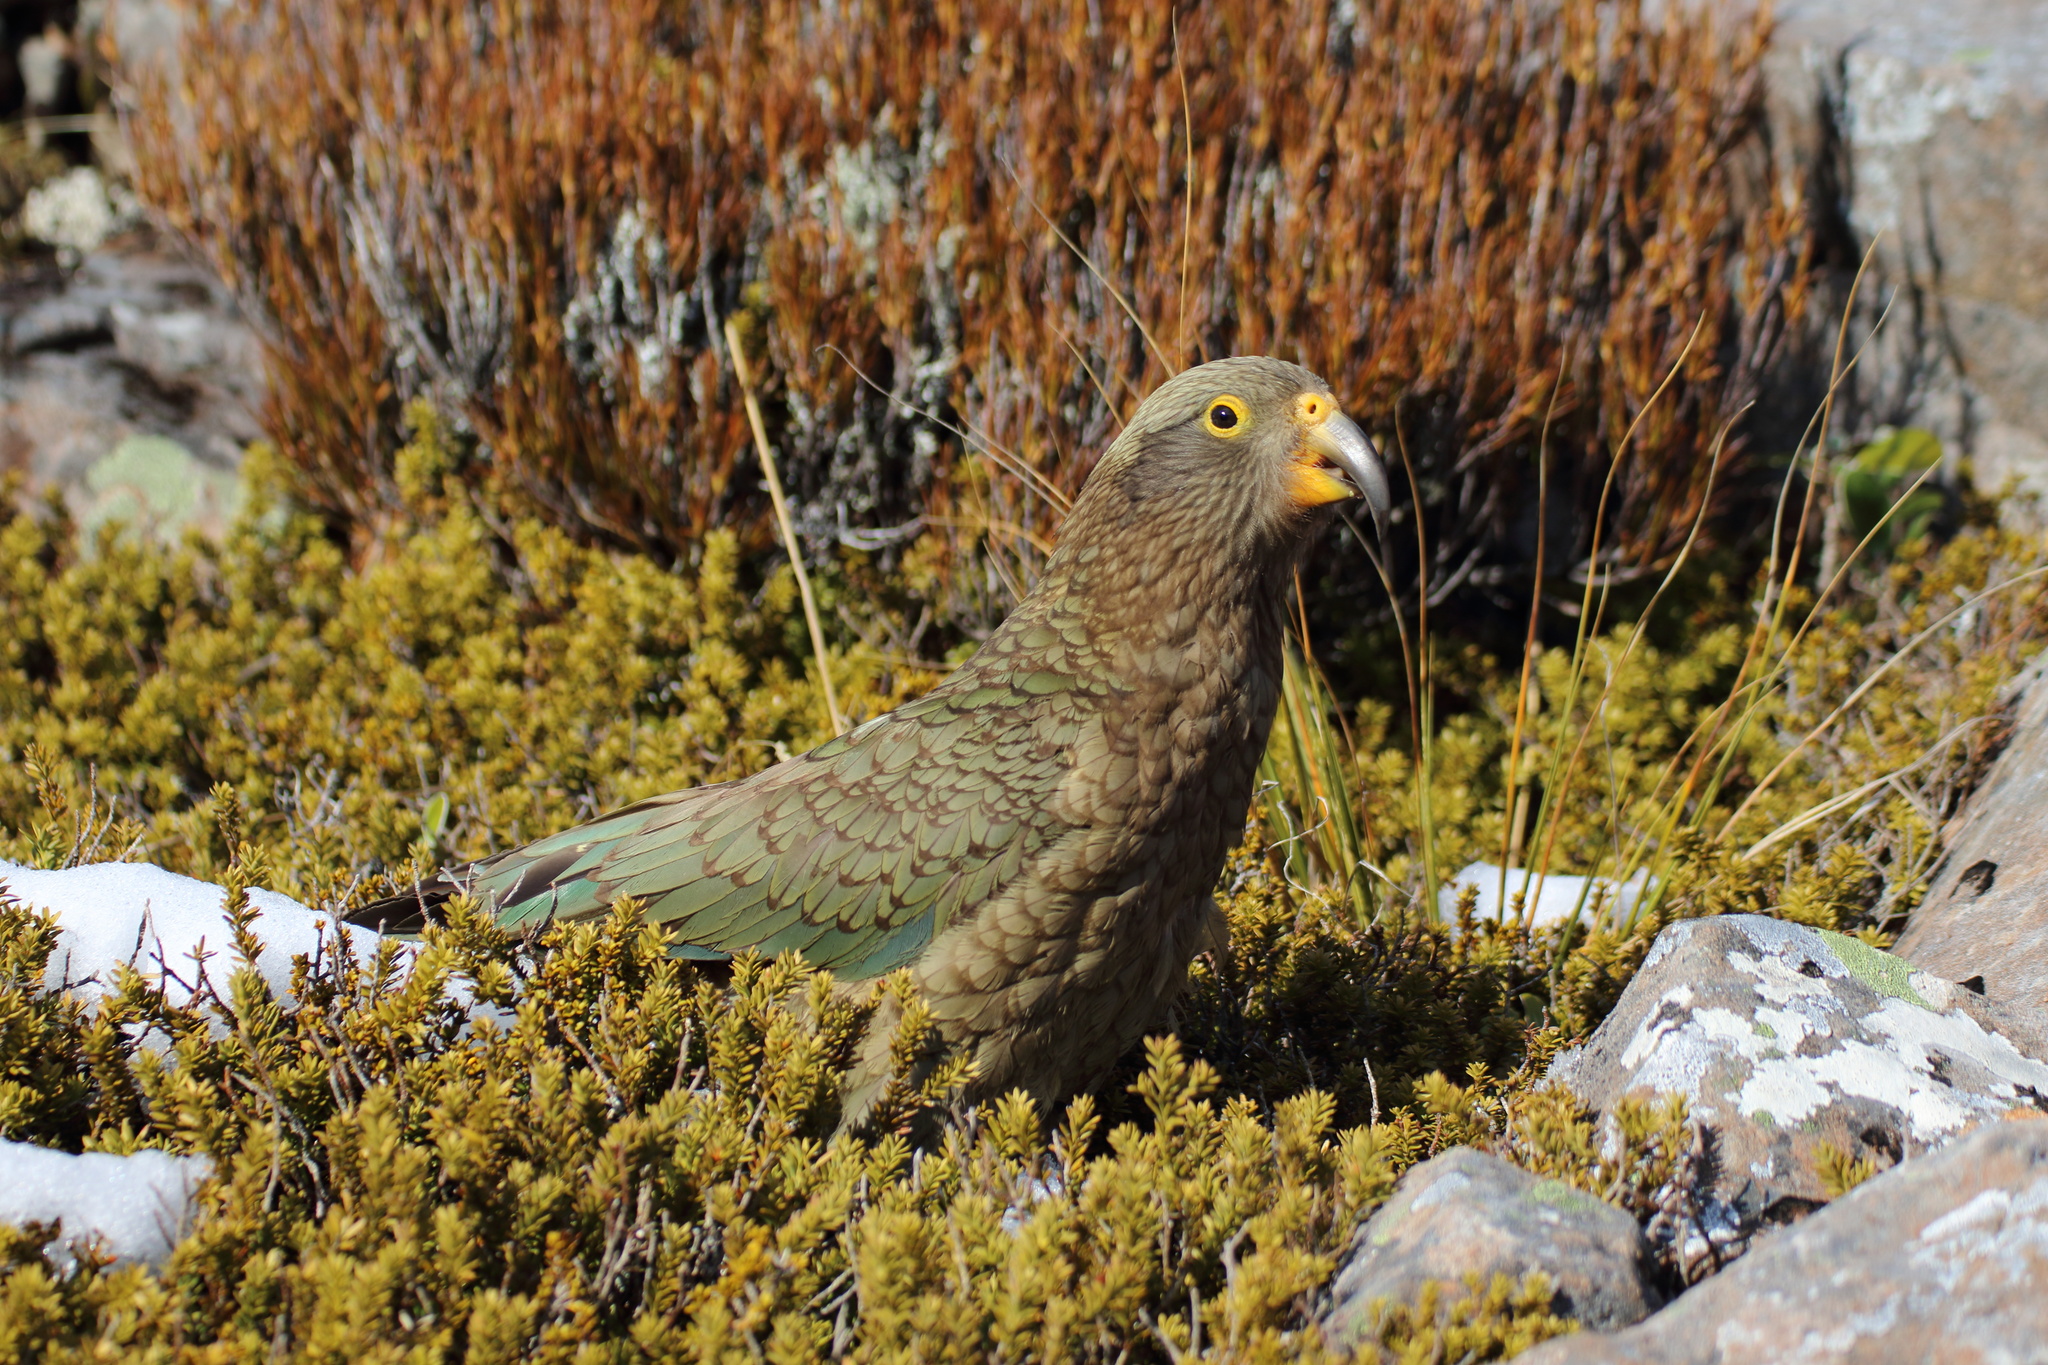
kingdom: Animalia
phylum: Chordata
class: Aves
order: Psittaciformes
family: Psittacidae
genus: Nestor
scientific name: Nestor notabilis
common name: Kea
